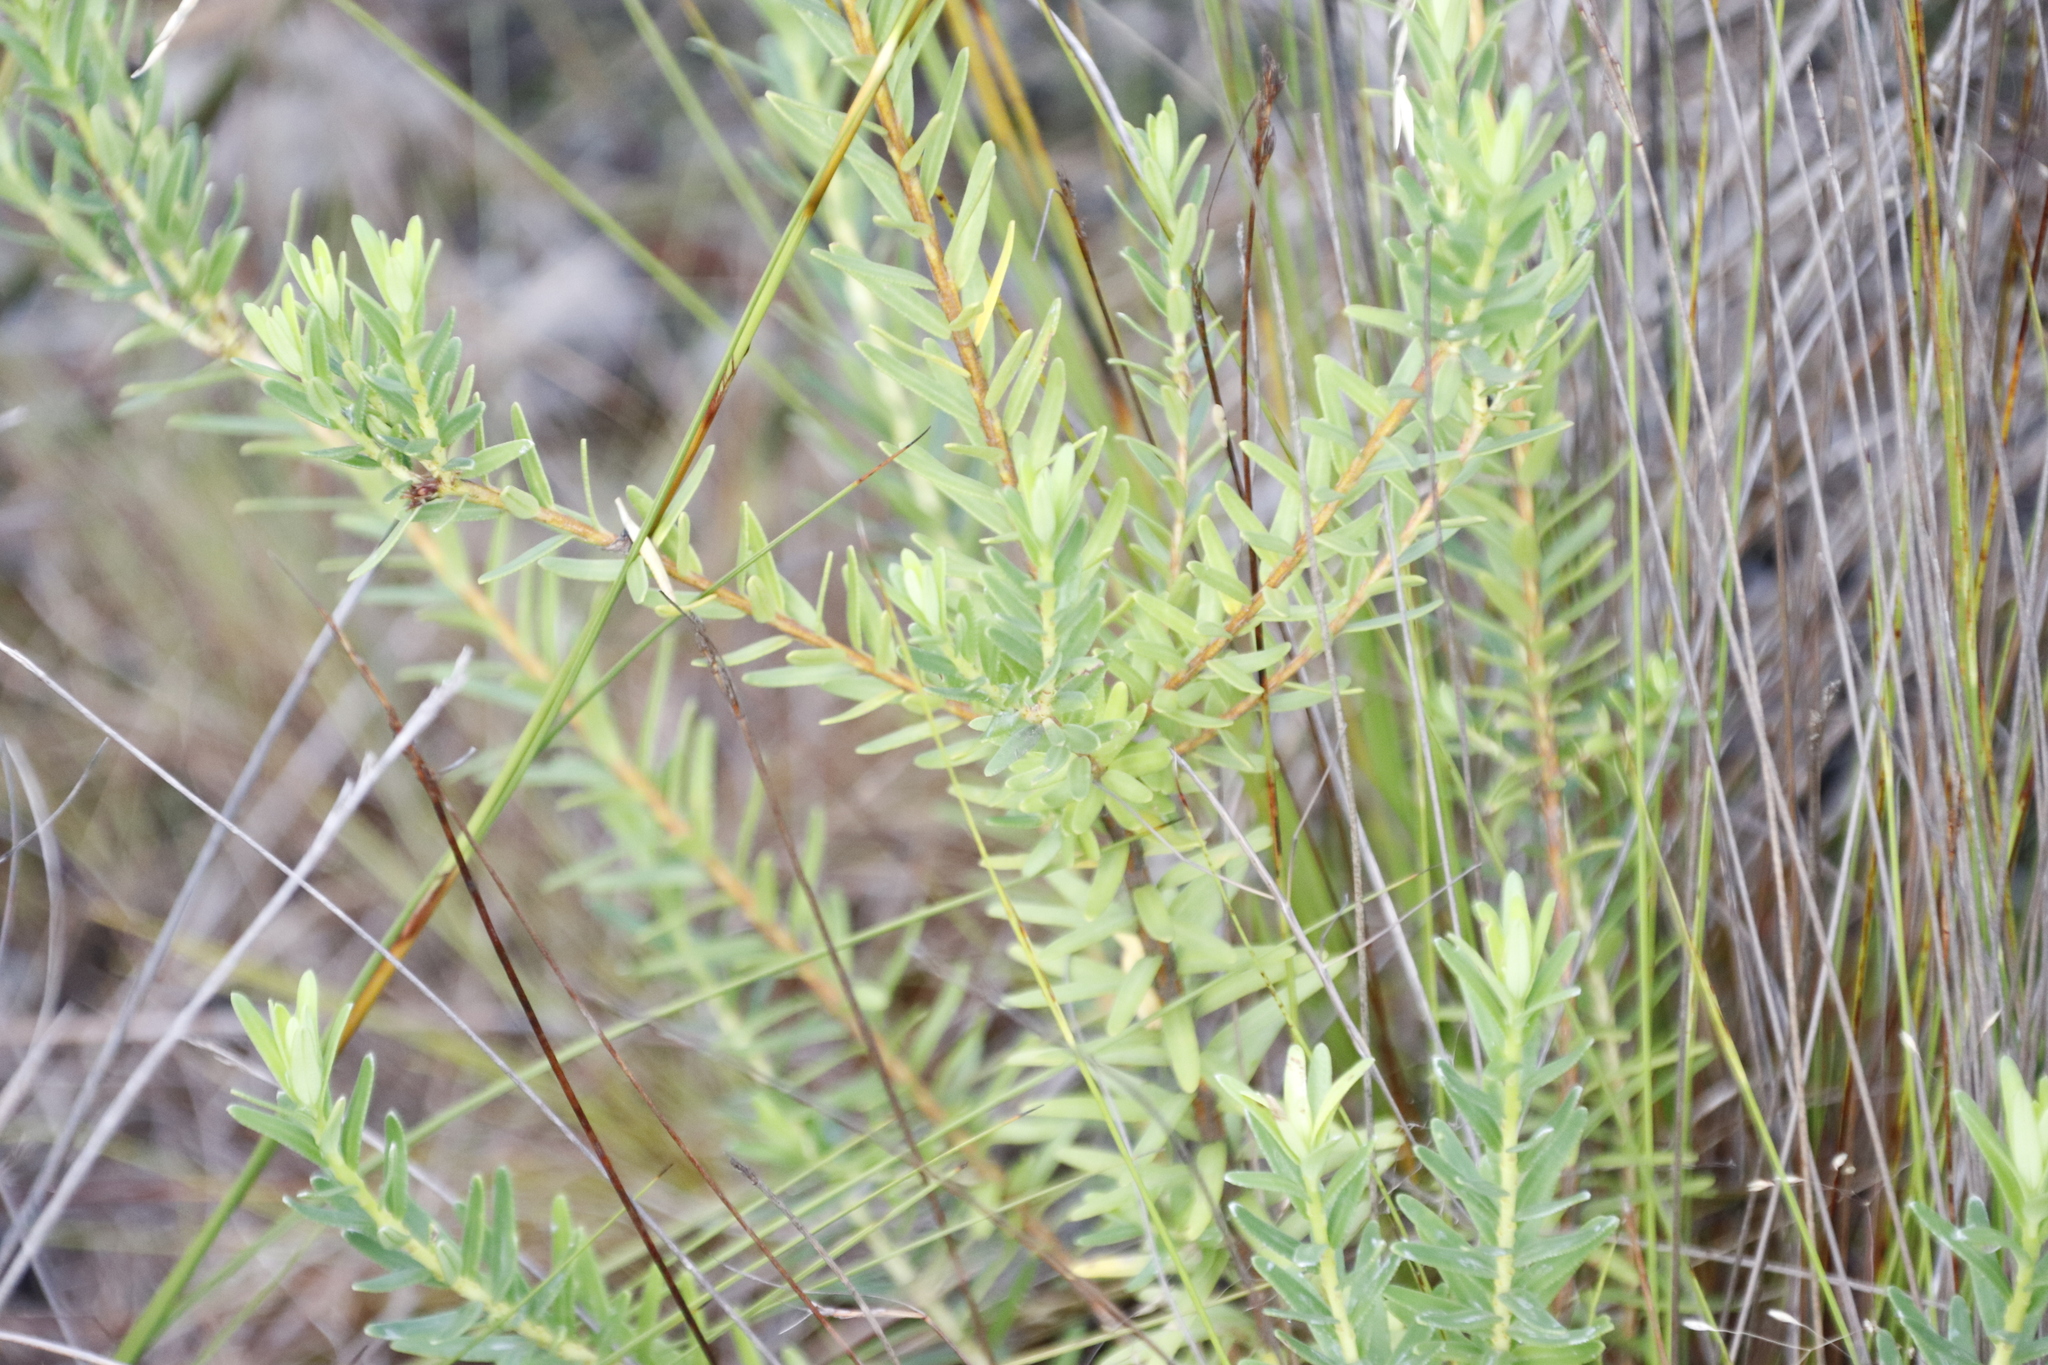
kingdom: Plantae
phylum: Tracheophyta
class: Magnoliopsida
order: Sapindales
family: Rutaceae
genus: Adenandra
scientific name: Adenandra fragrans
